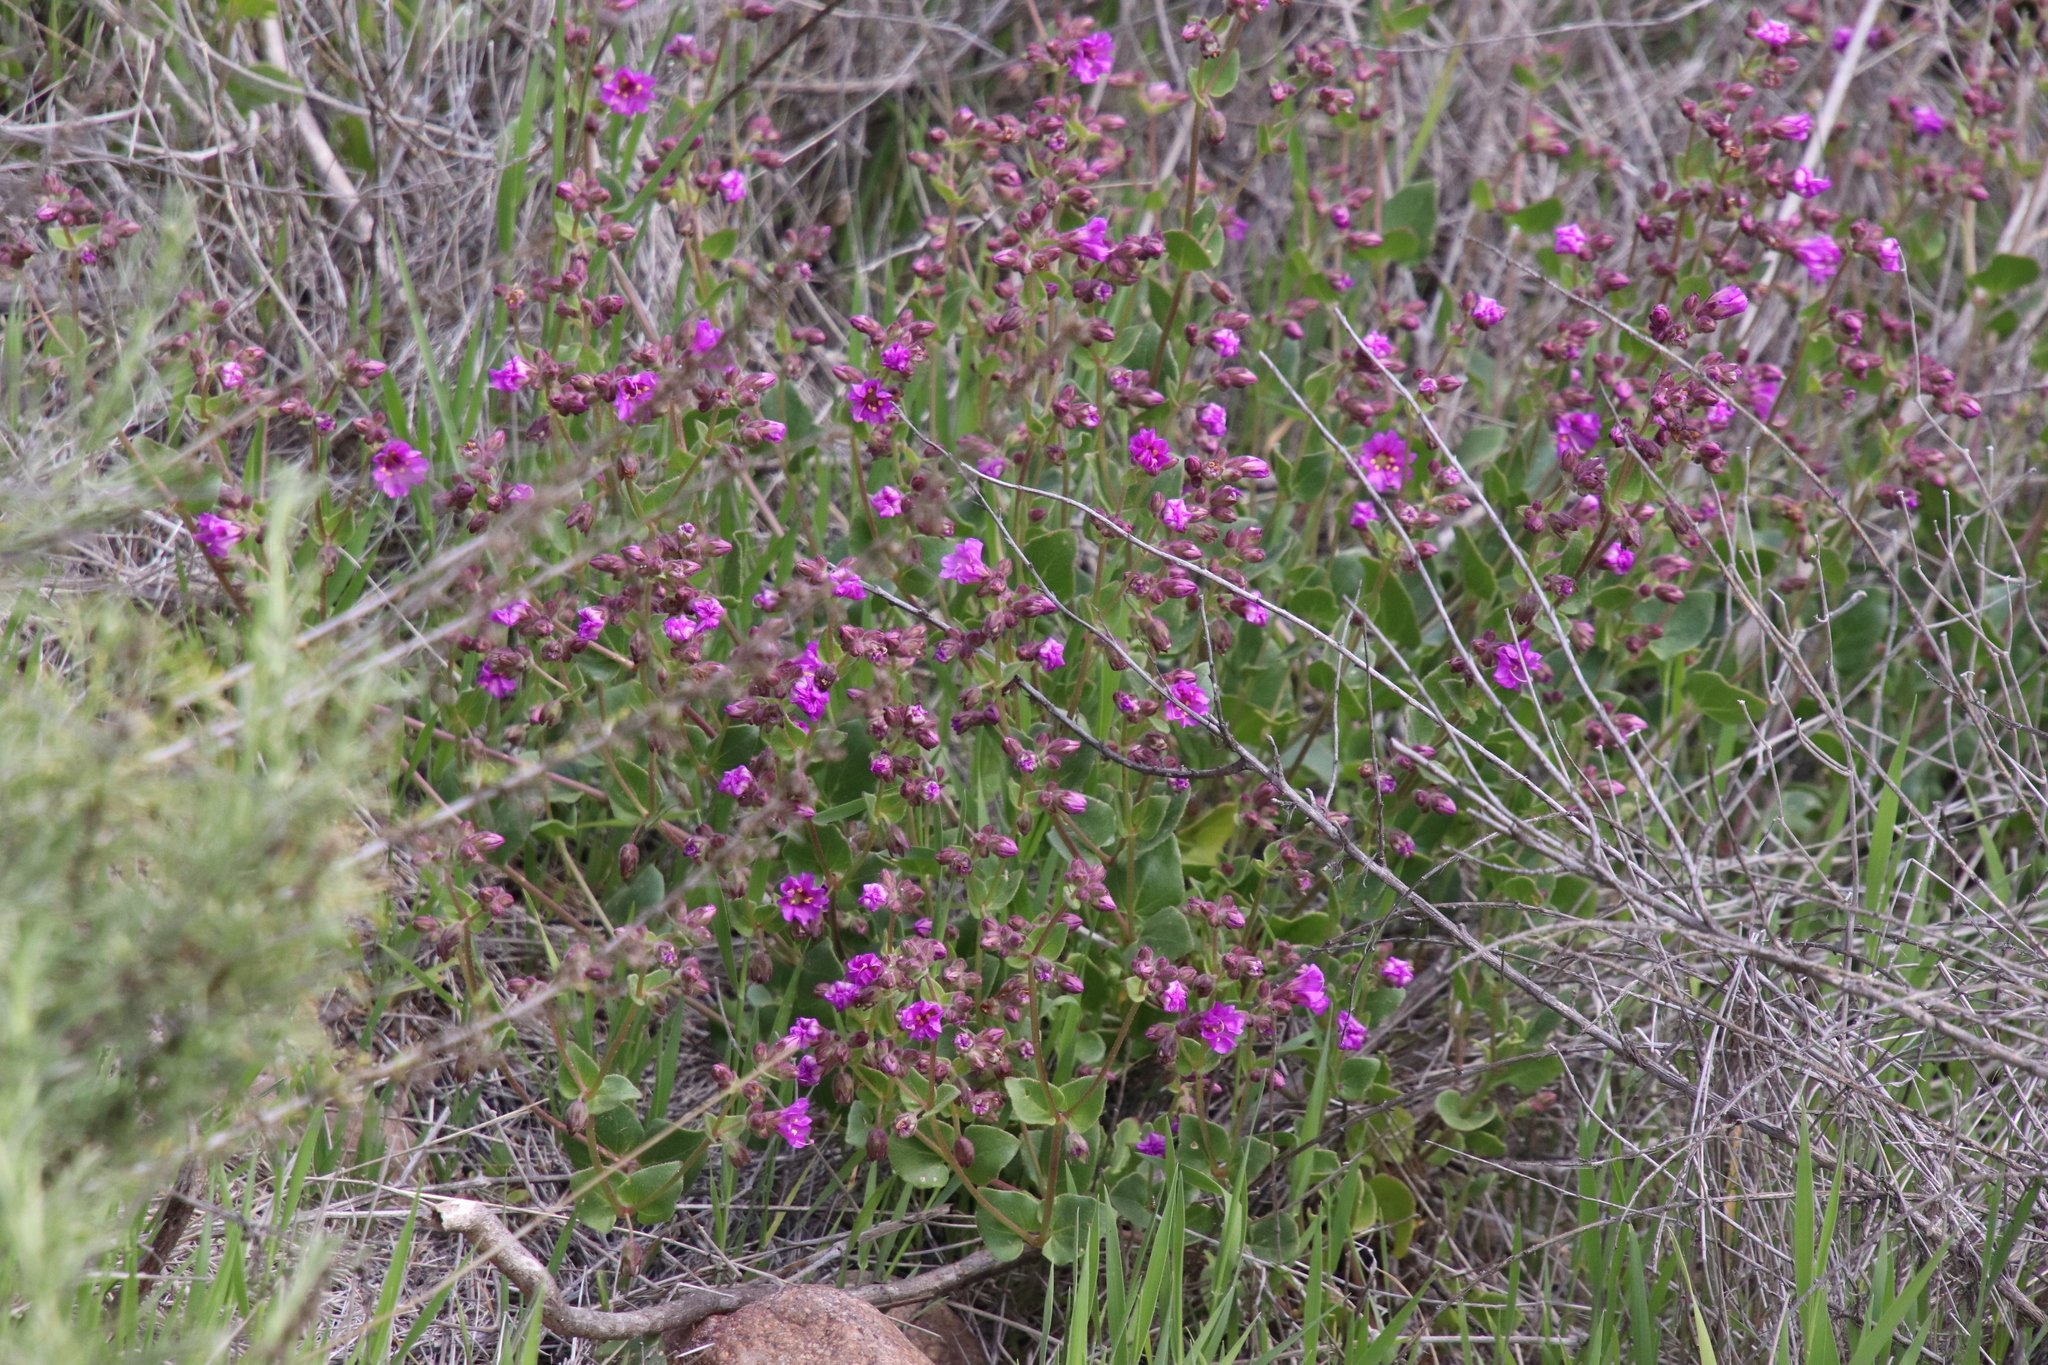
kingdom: Plantae
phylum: Tracheophyta
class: Magnoliopsida
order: Caryophyllales
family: Nyctaginaceae
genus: Mirabilis
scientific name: Mirabilis laevis
